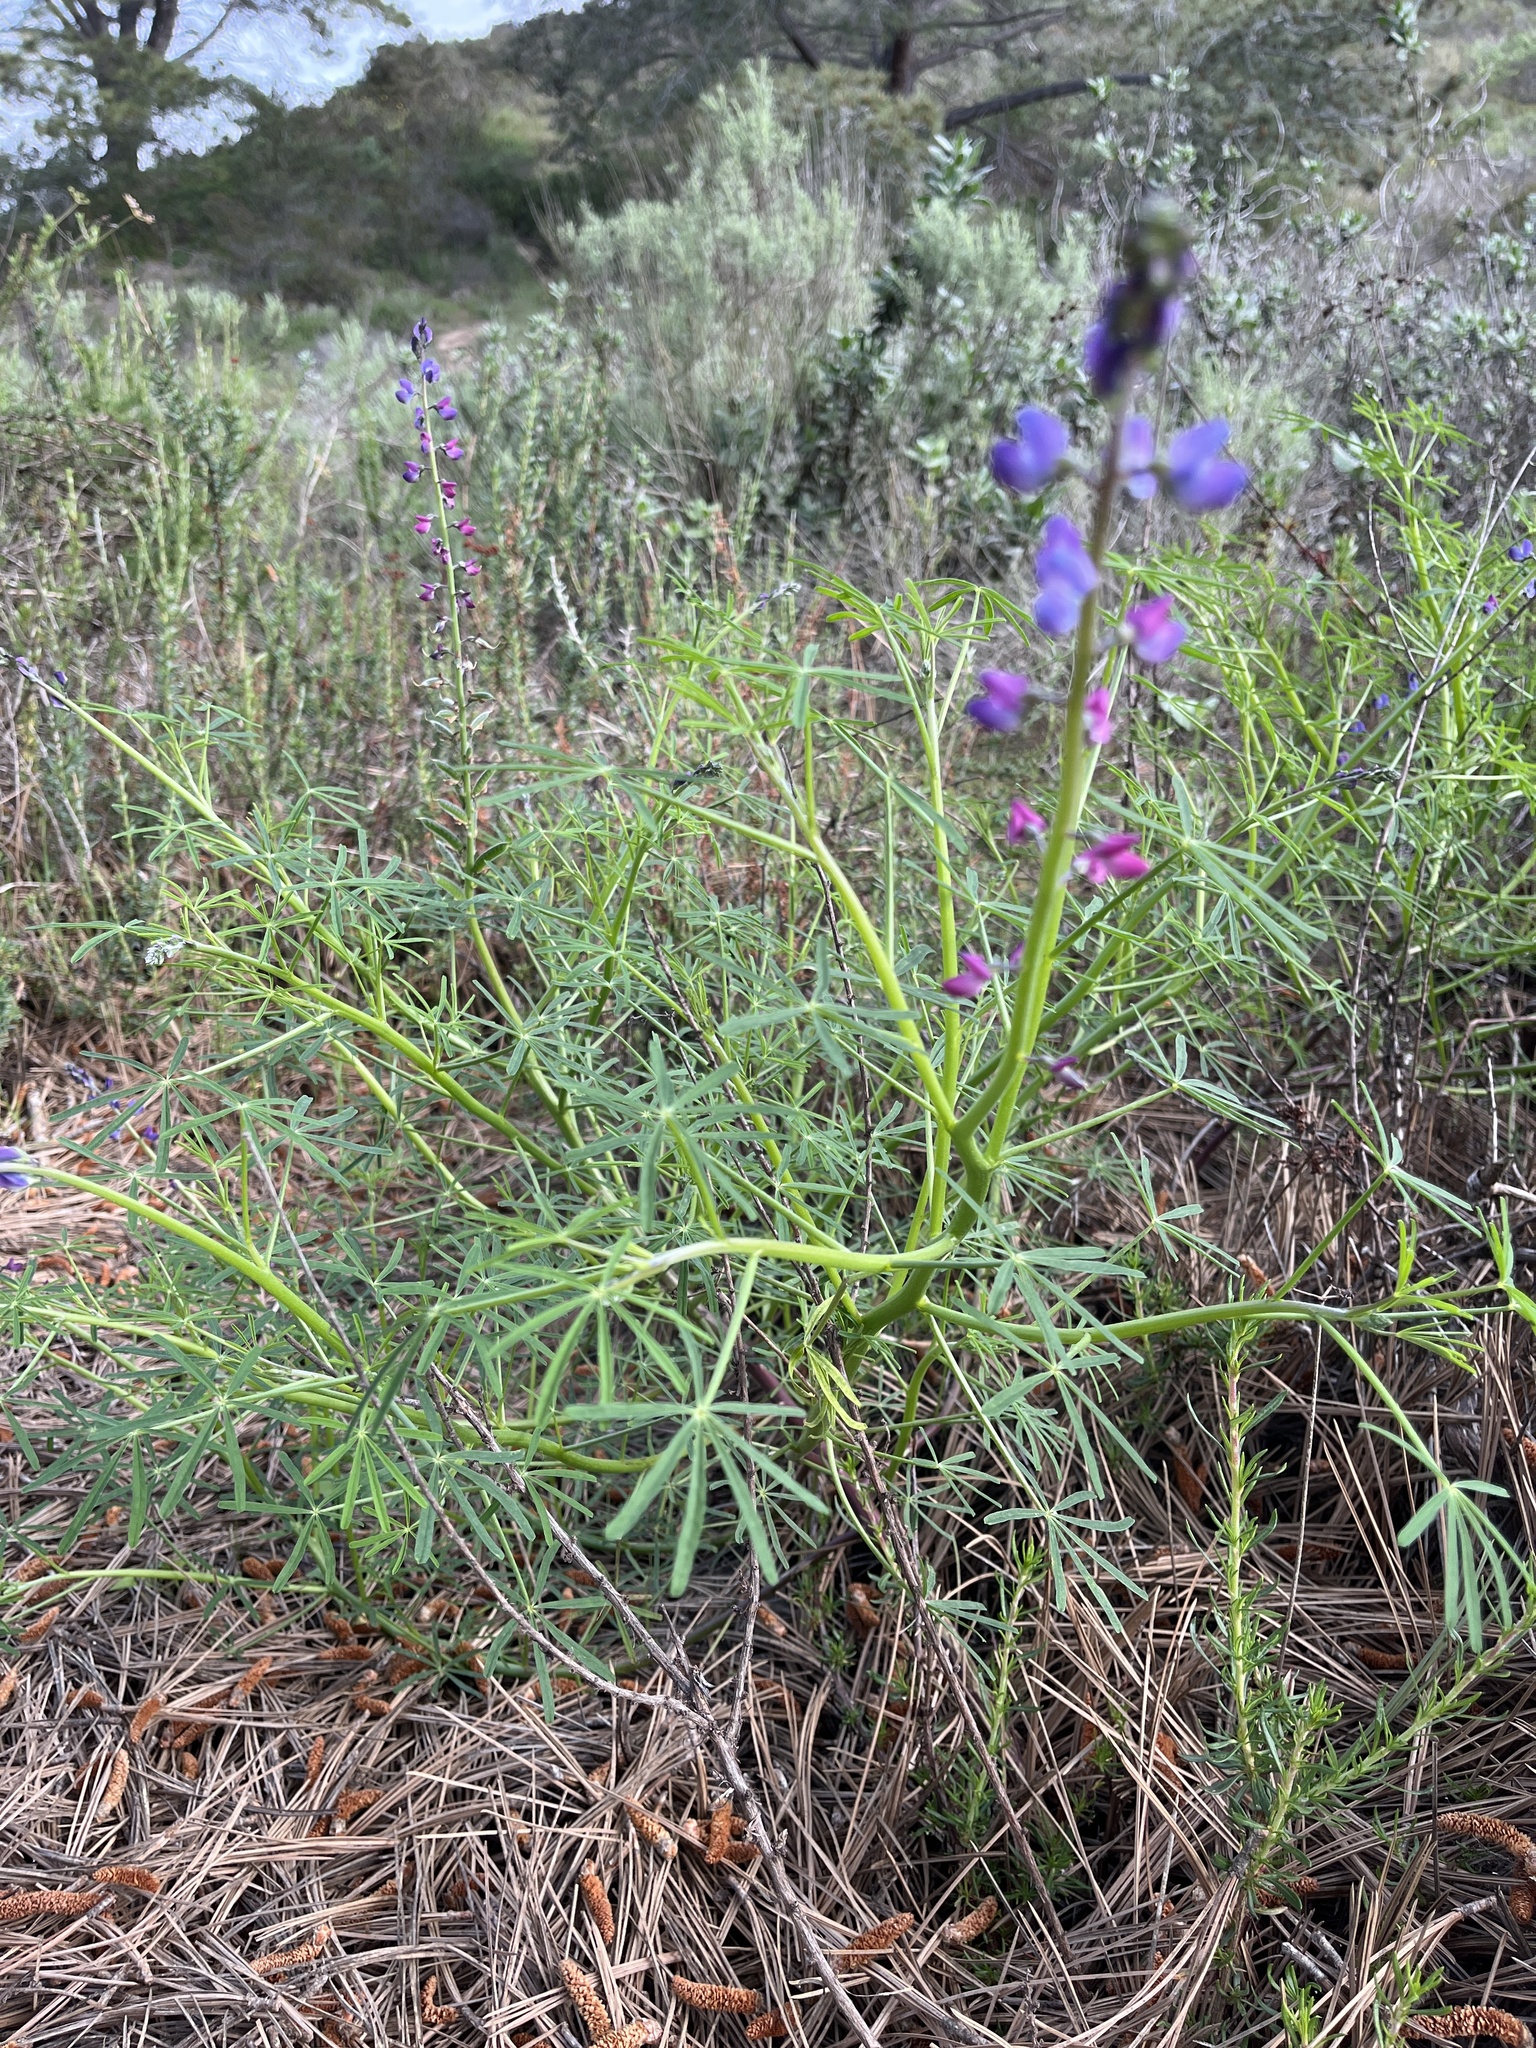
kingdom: Plantae
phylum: Tracheophyta
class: Magnoliopsida
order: Fabales
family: Fabaceae
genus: Lupinus
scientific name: Lupinus truncatus
